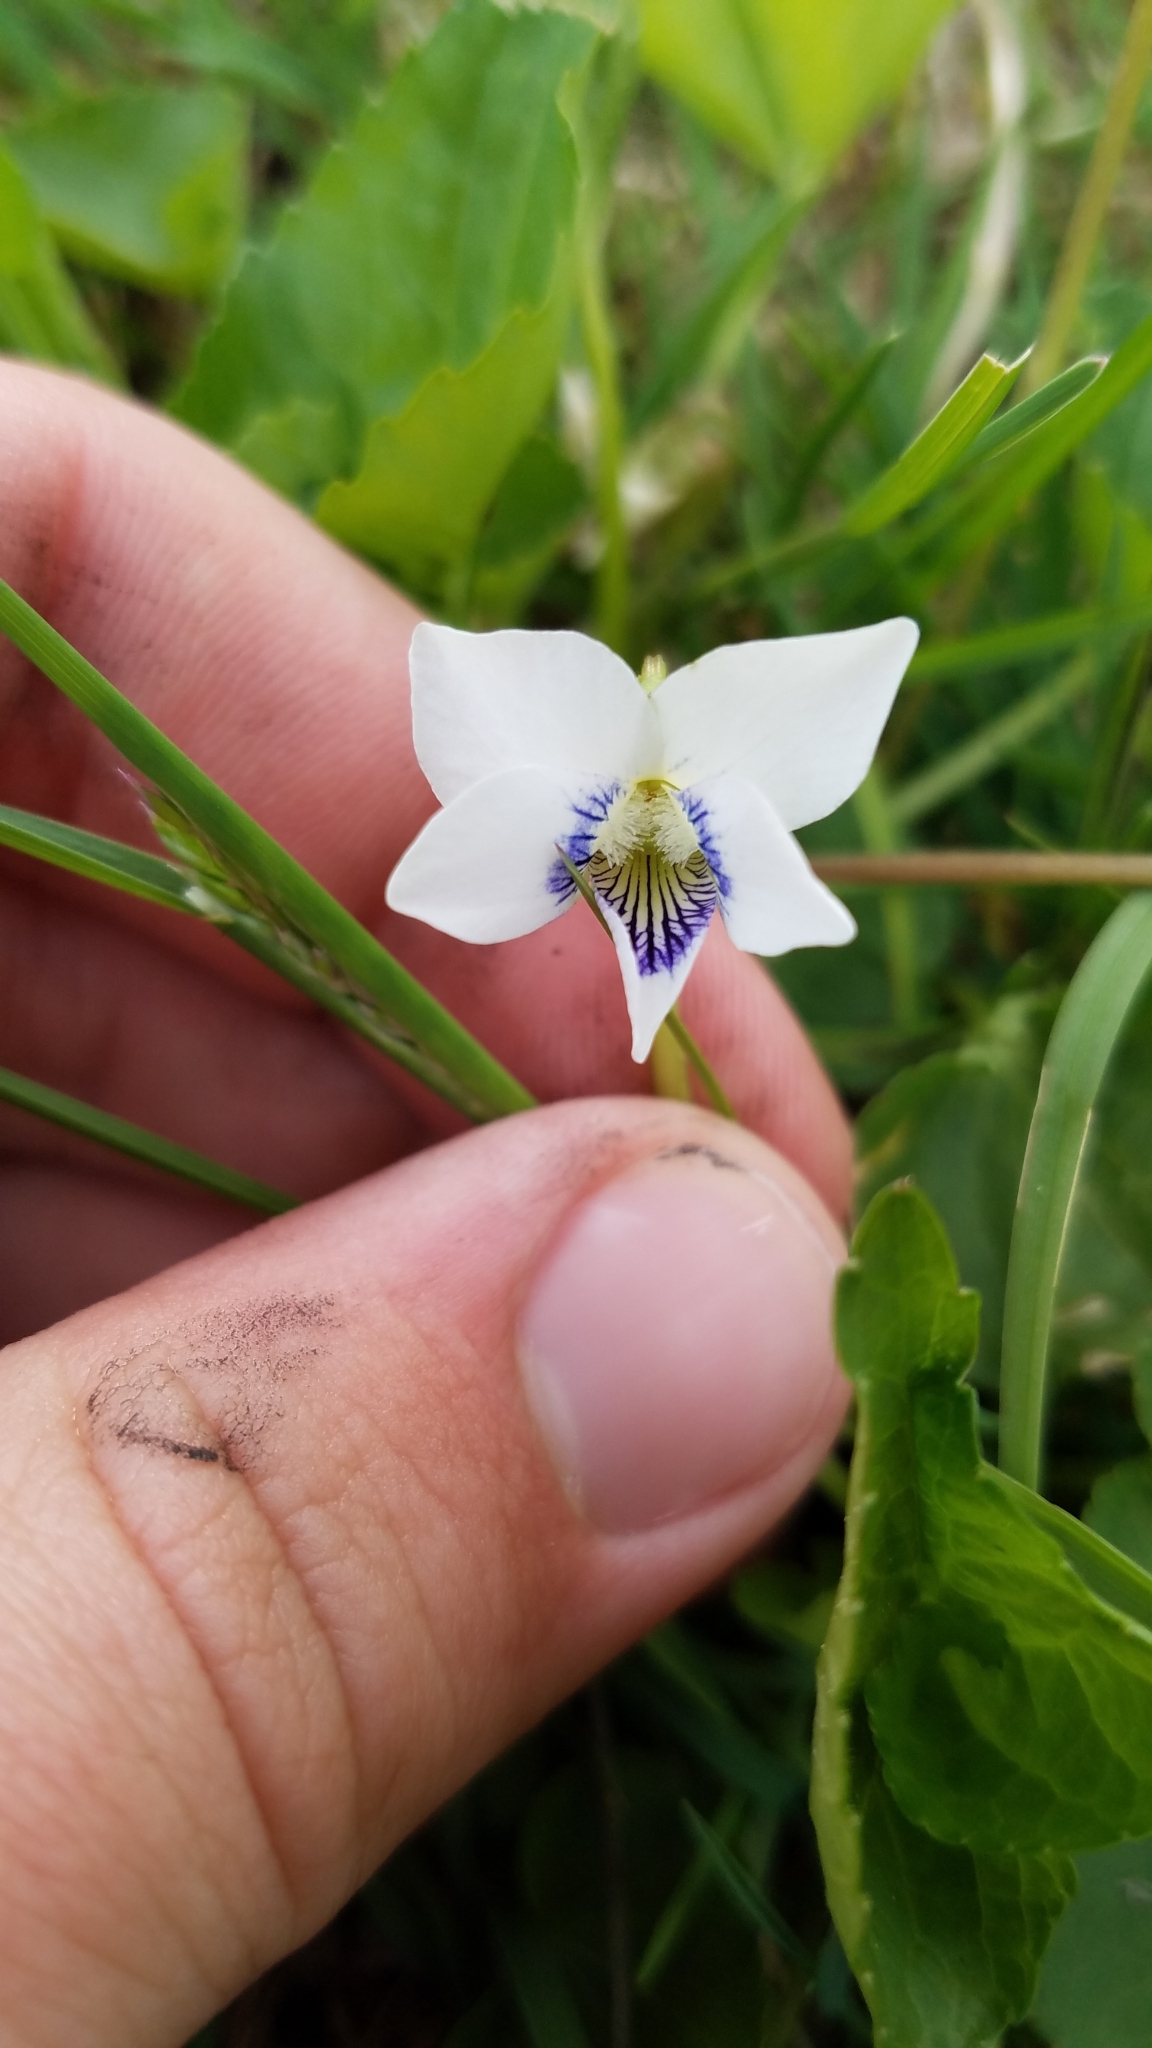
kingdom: Plantae
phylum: Tracheophyta
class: Magnoliopsida
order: Malpighiales
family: Violaceae
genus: Viola
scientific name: Viola sororia
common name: Dooryard violet
